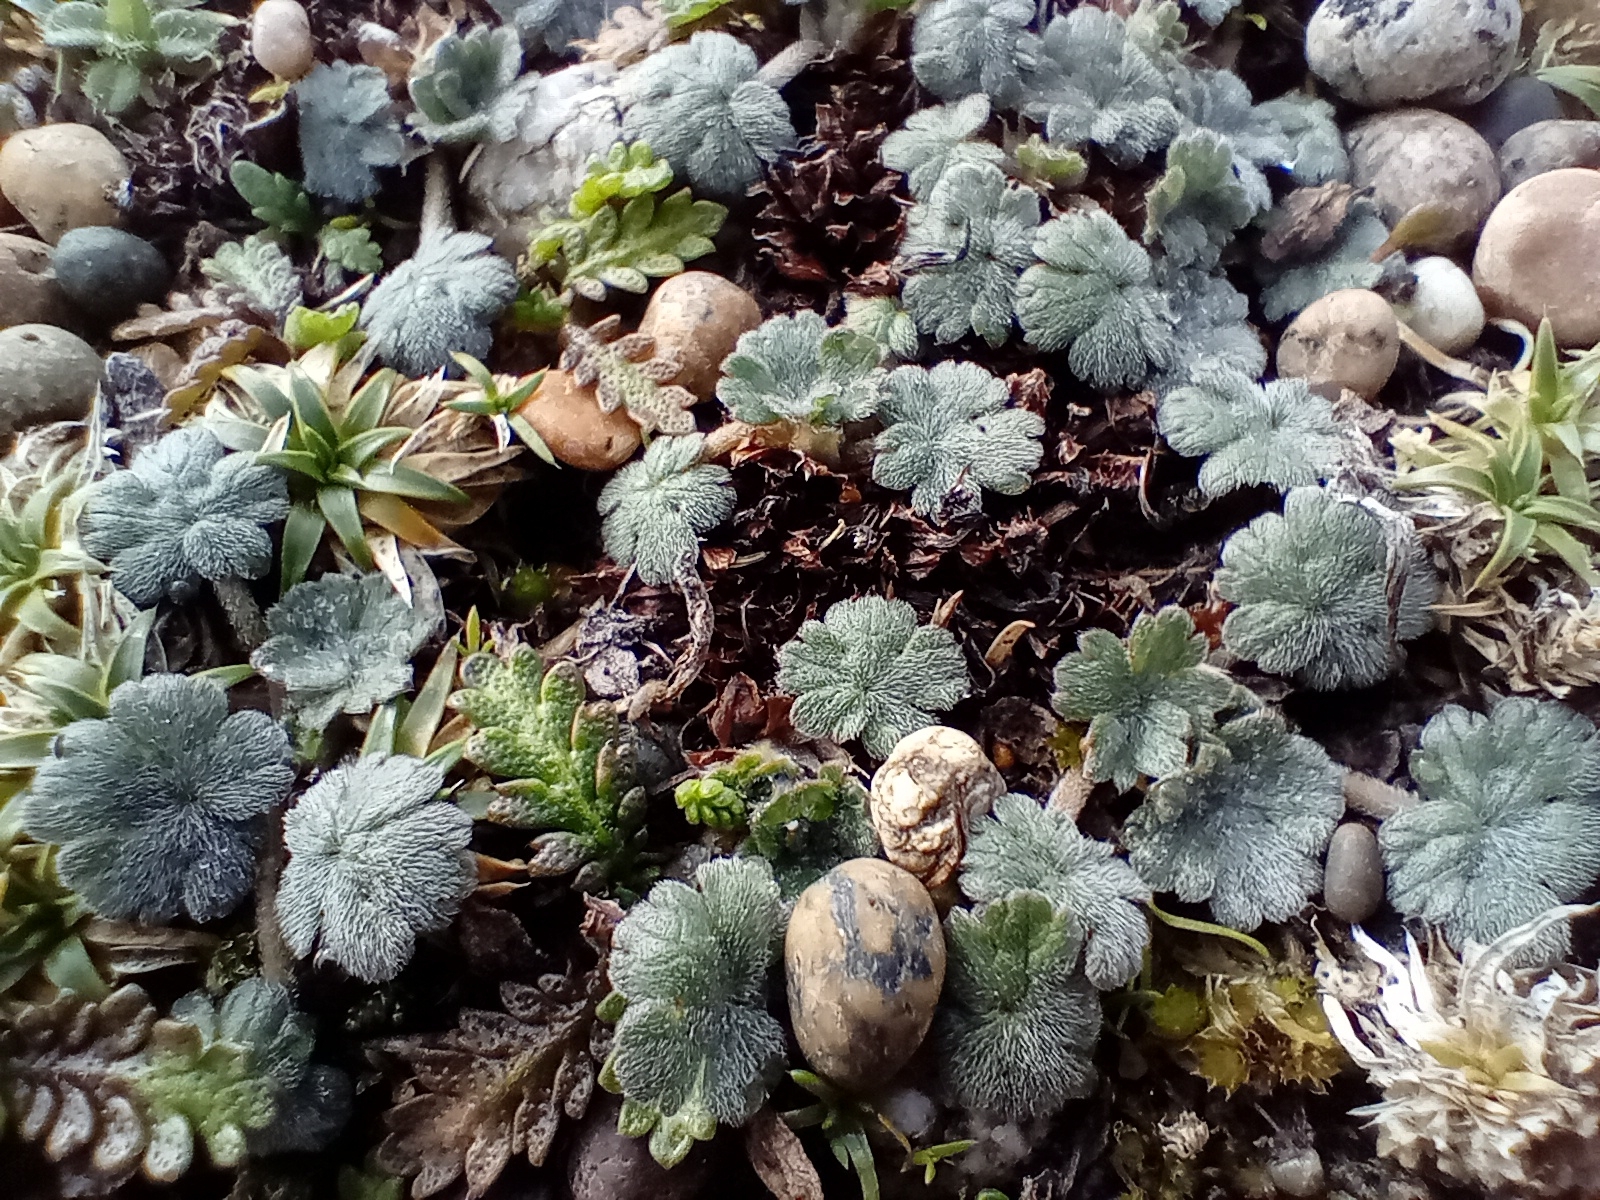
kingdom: Plantae
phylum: Tracheophyta
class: Magnoliopsida
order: Geraniales
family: Geraniaceae
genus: Geranium
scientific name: Geranium brevicaule
